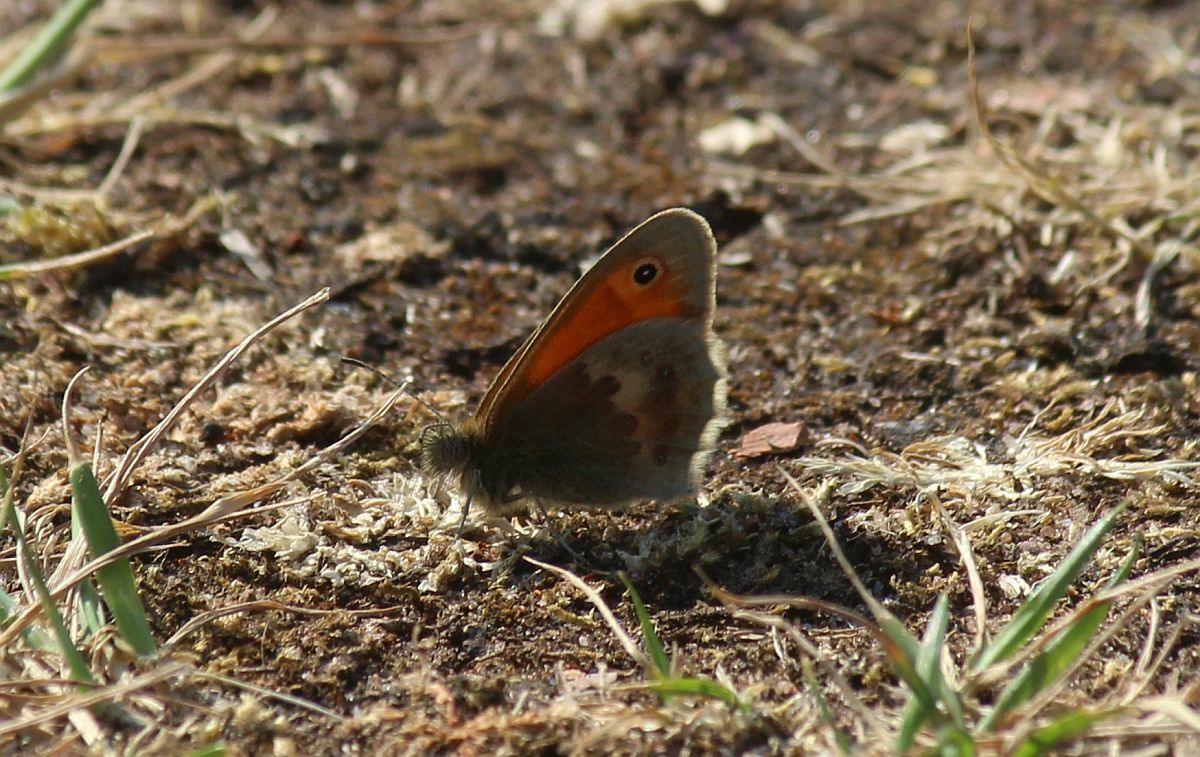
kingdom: Animalia
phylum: Arthropoda
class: Insecta
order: Lepidoptera
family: Nymphalidae
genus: Coenonympha
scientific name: Coenonympha pamphilus
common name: Small heath
